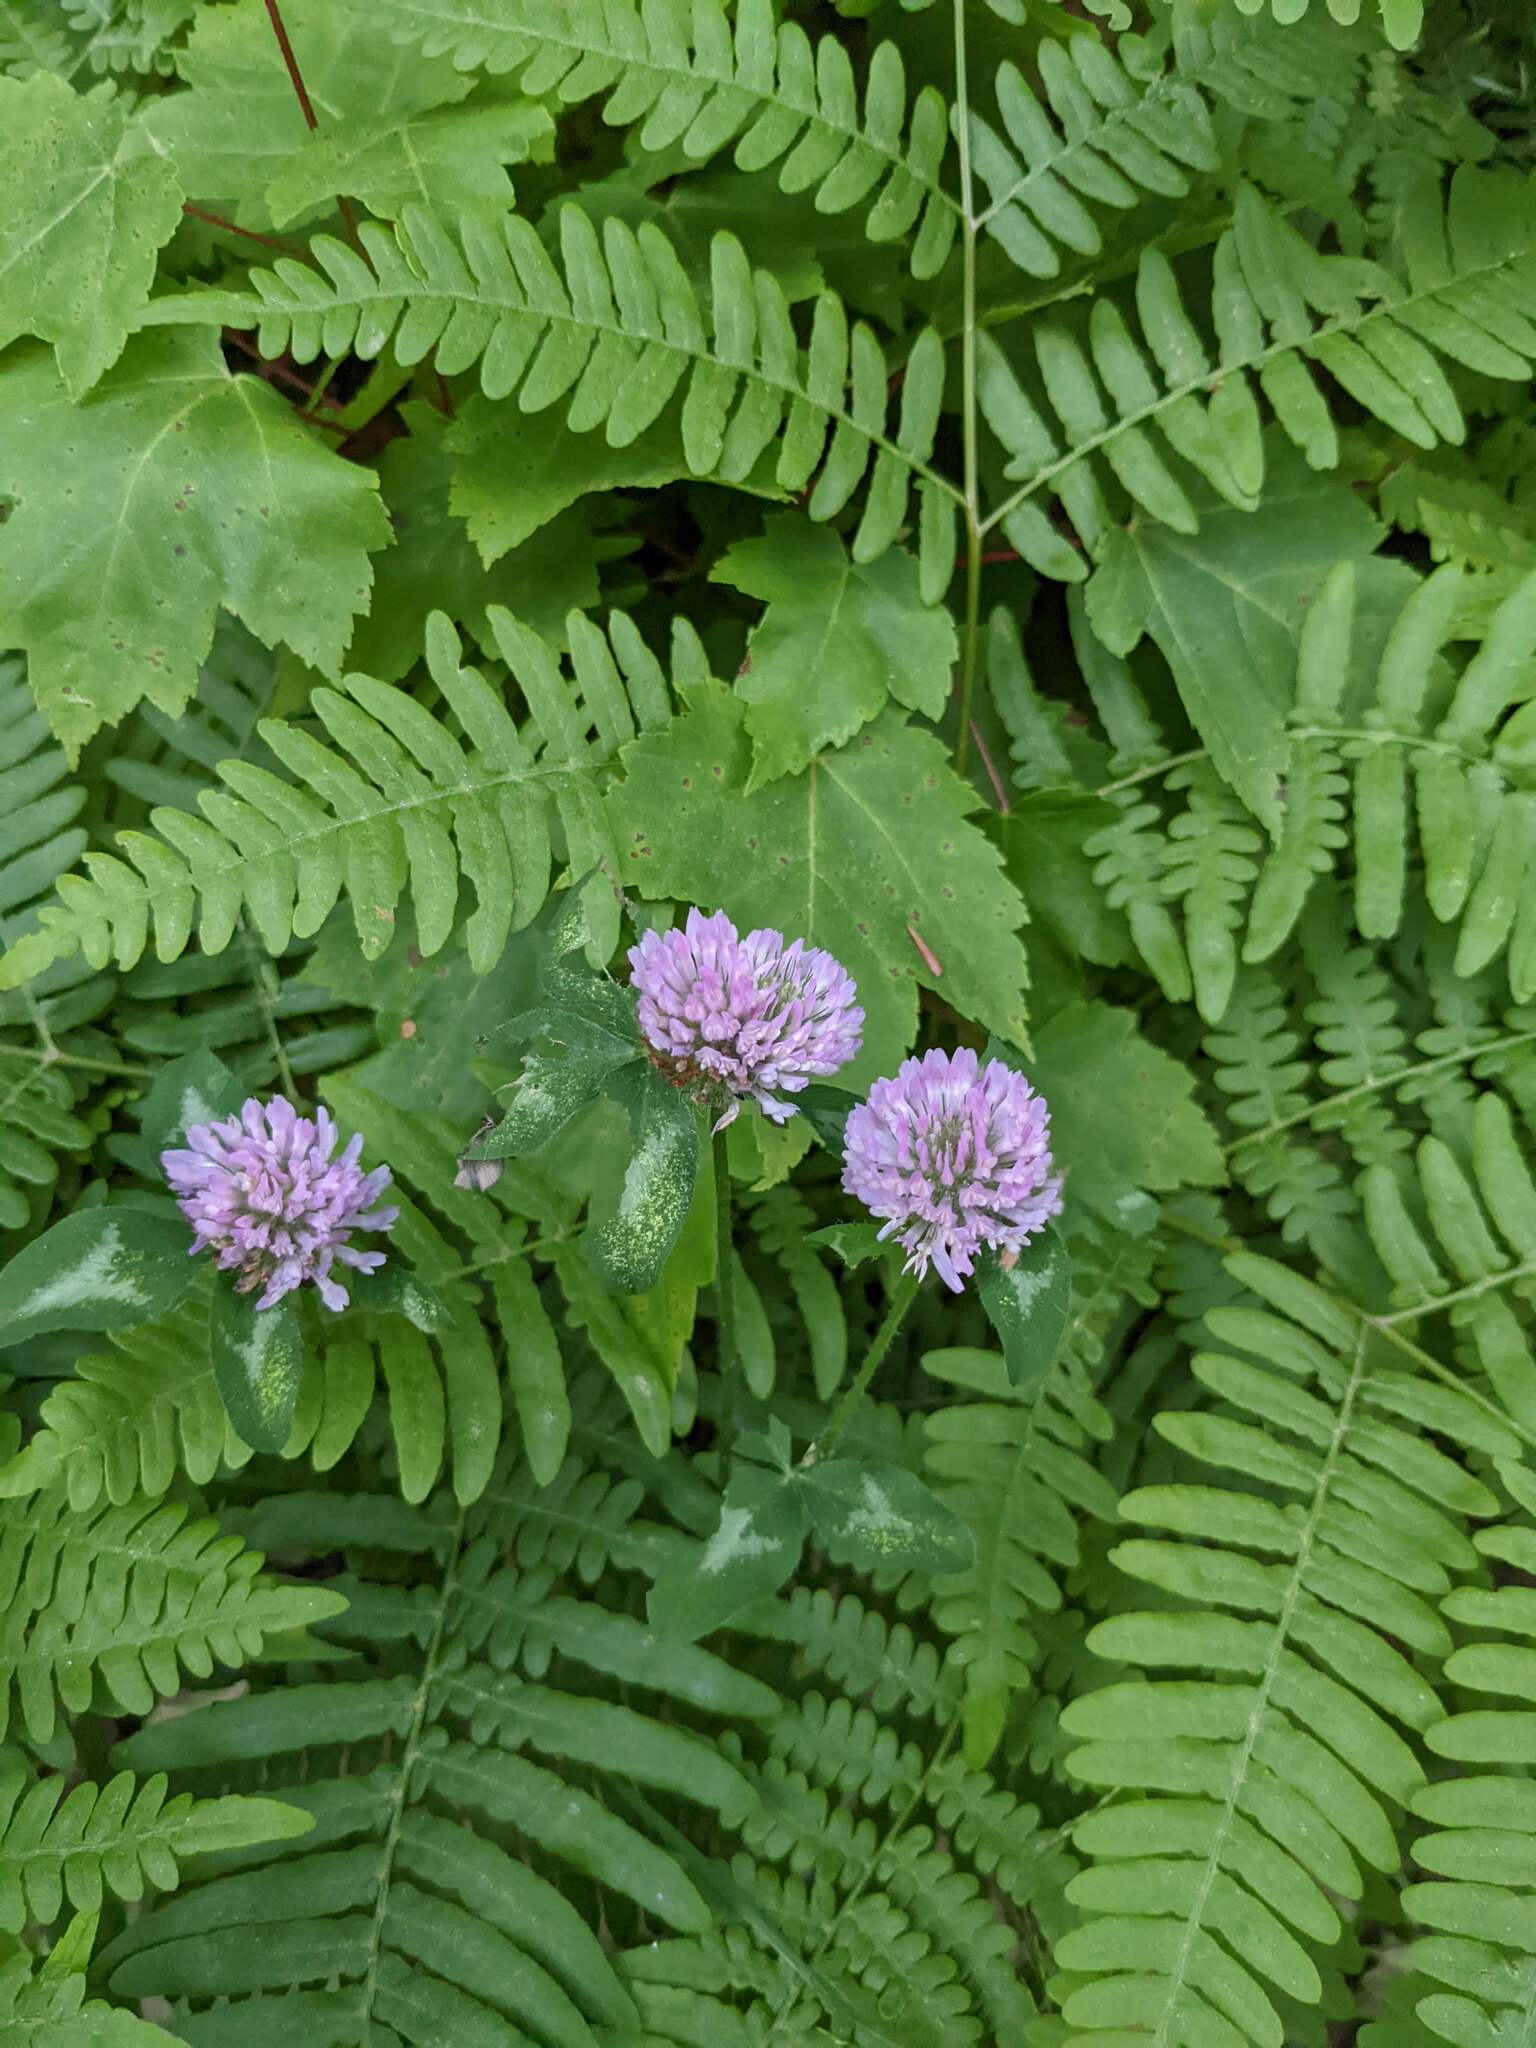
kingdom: Plantae
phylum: Tracheophyta
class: Magnoliopsida
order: Fabales
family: Fabaceae
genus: Trifolium
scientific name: Trifolium pratense
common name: Red clover
